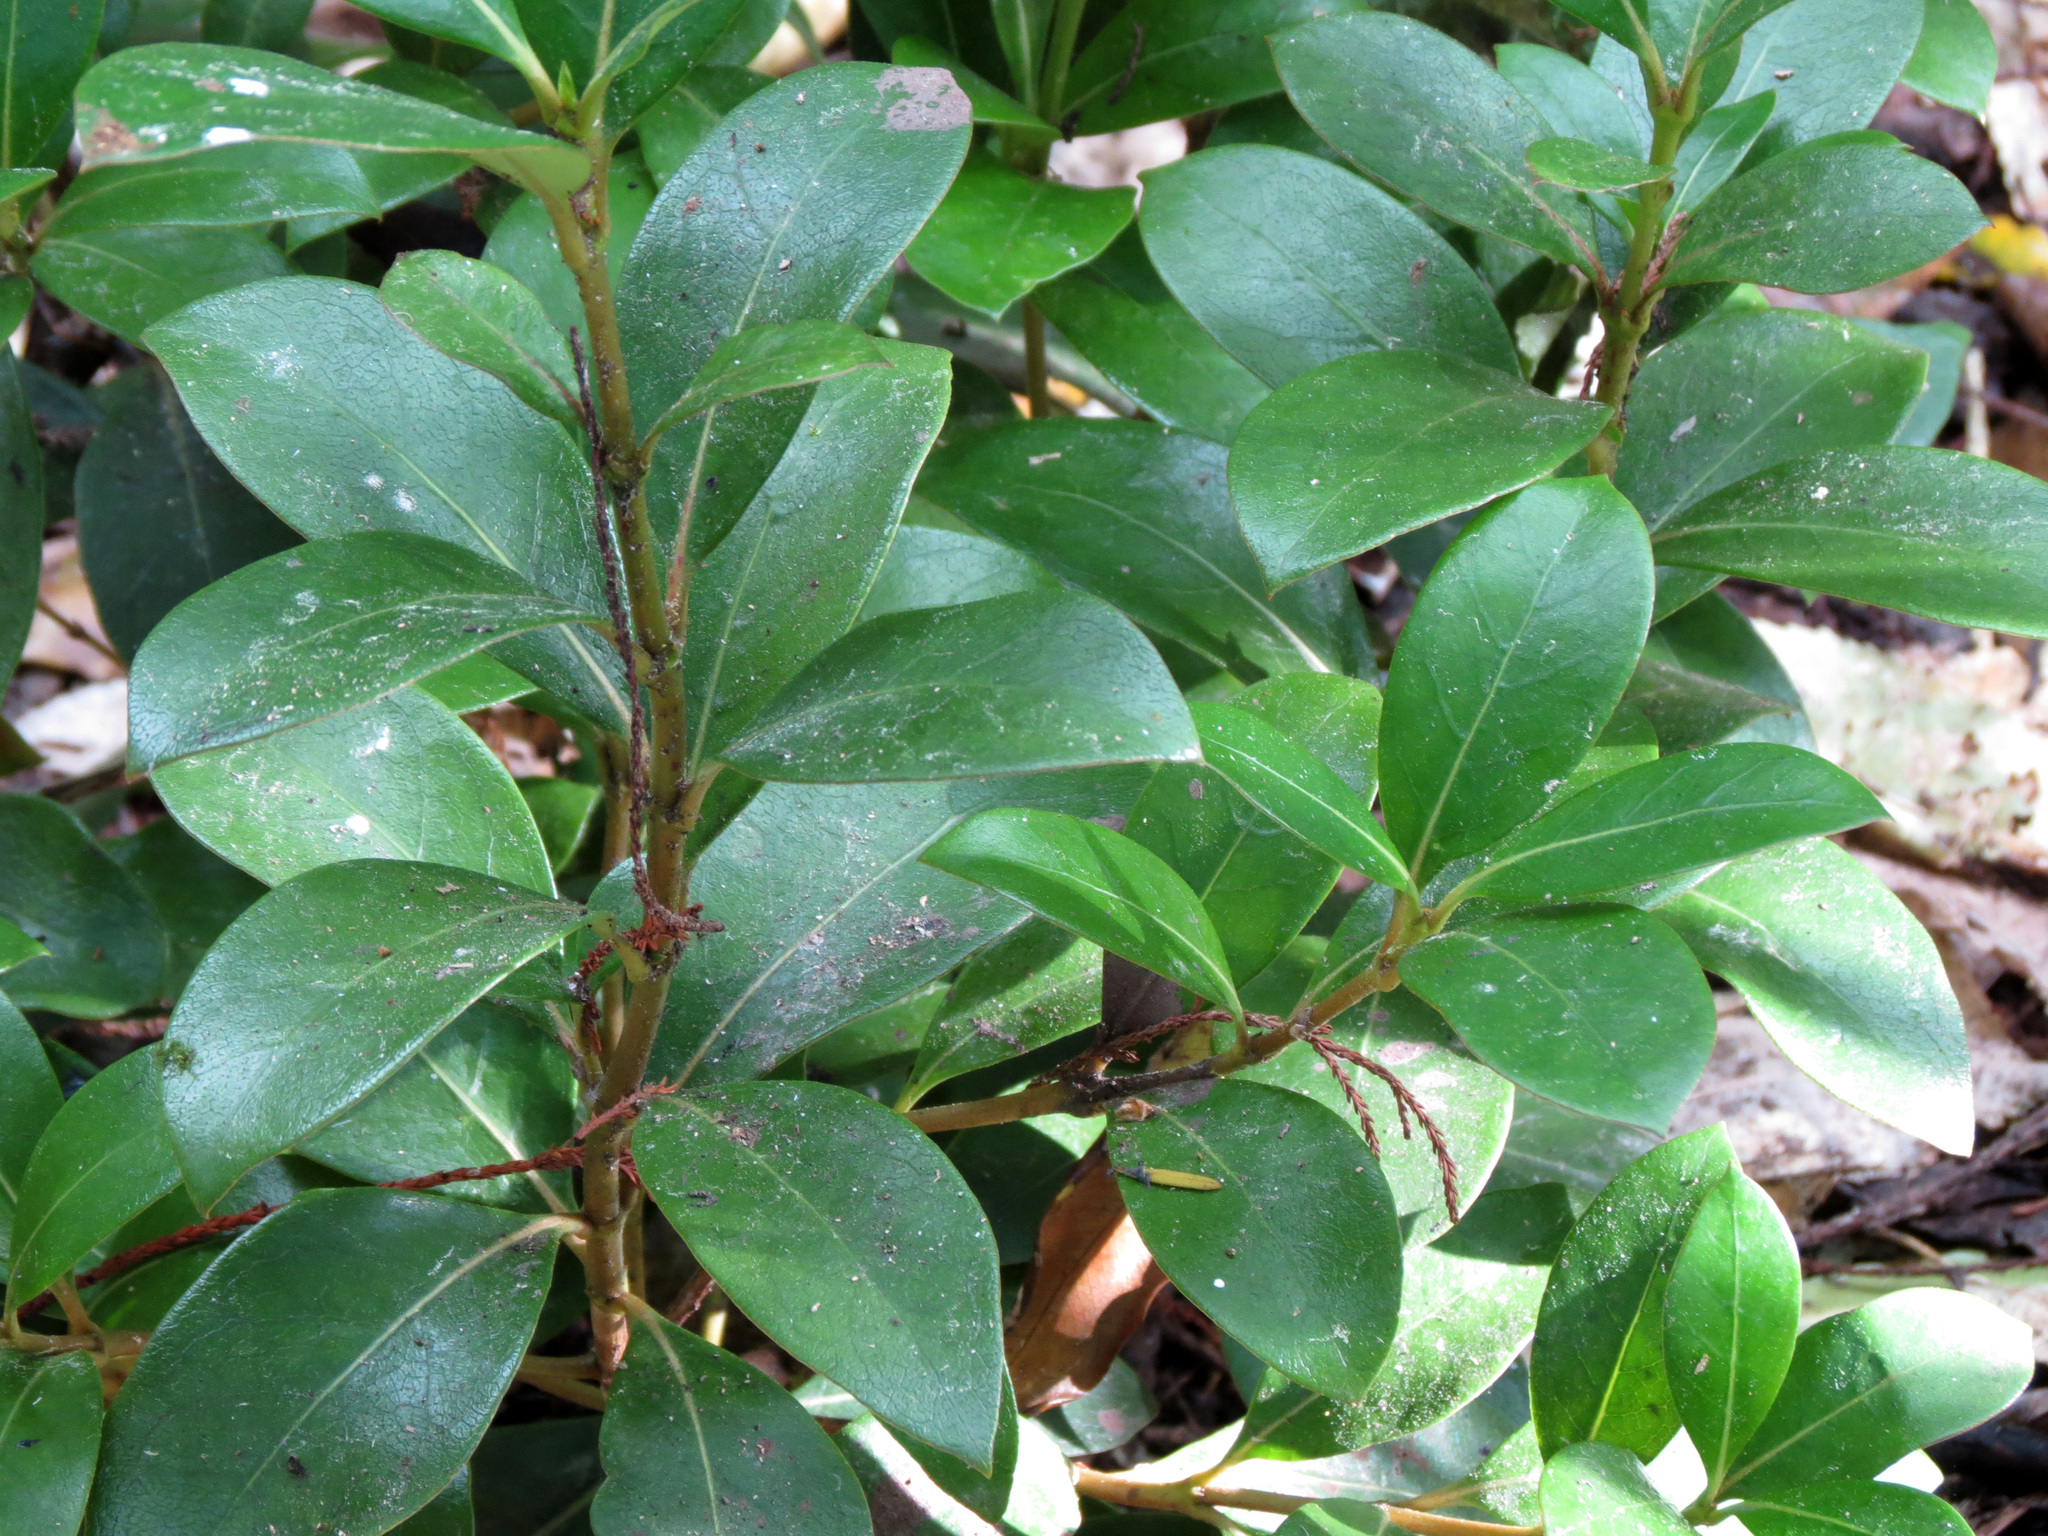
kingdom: Plantae
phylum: Tracheophyta
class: Magnoliopsida
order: Gentianales
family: Rubiaceae
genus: Coprosma
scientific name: Coprosma lucida
